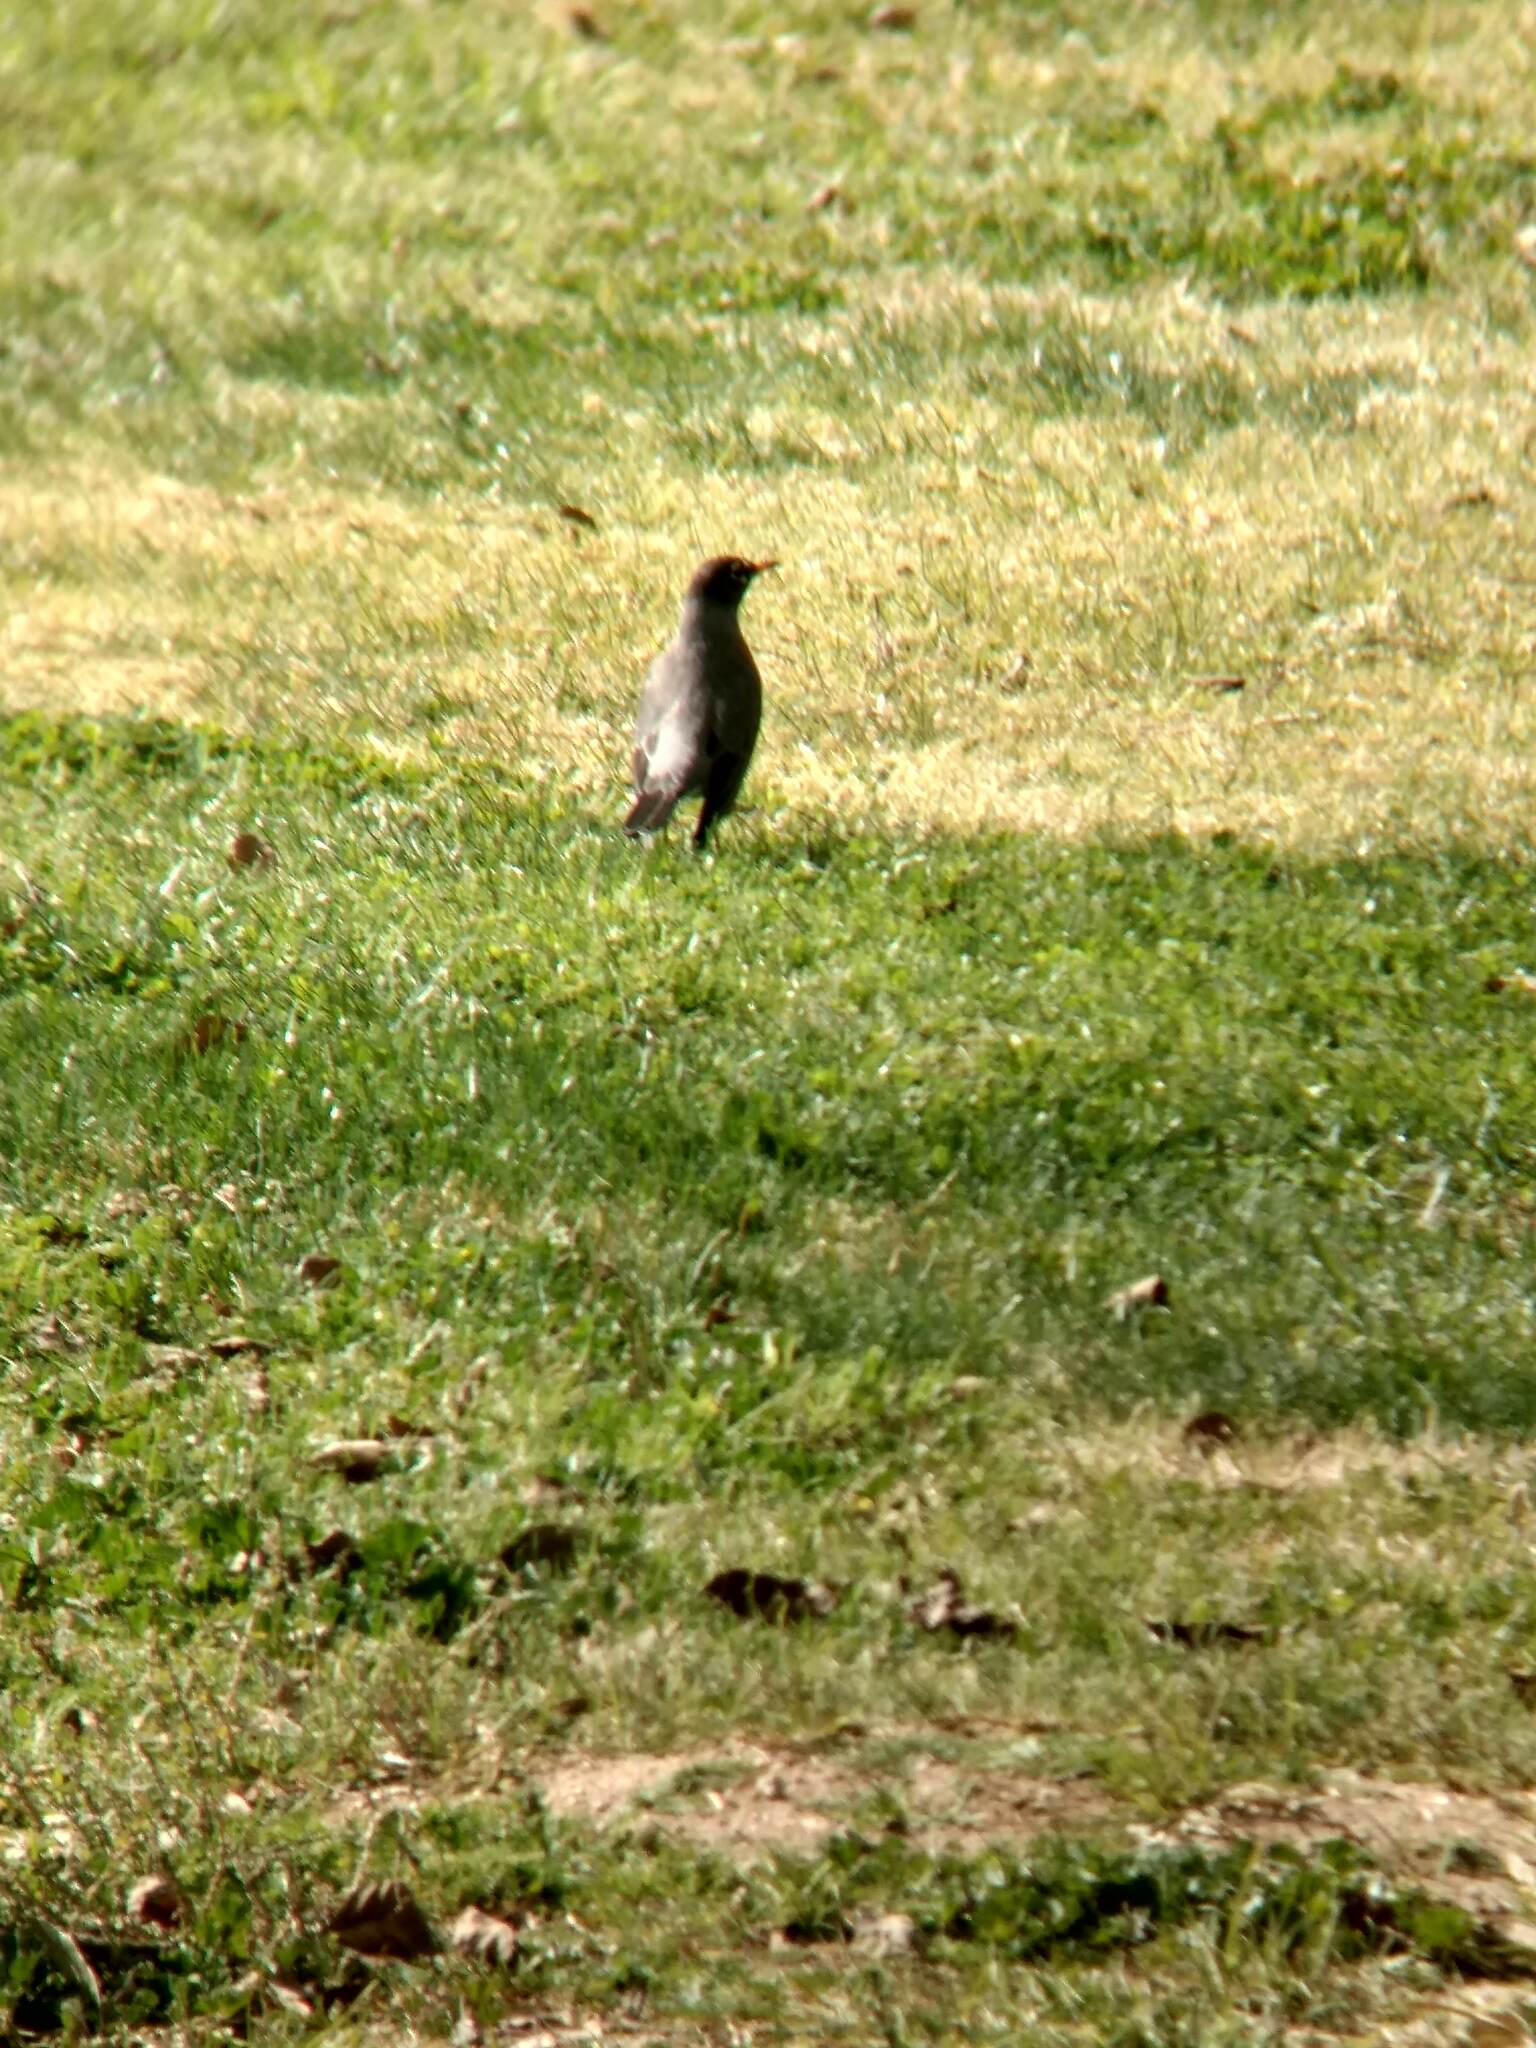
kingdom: Animalia
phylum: Chordata
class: Aves
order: Passeriformes
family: Turdidae
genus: Turdus
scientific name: Turdus migratorius
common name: American robin
